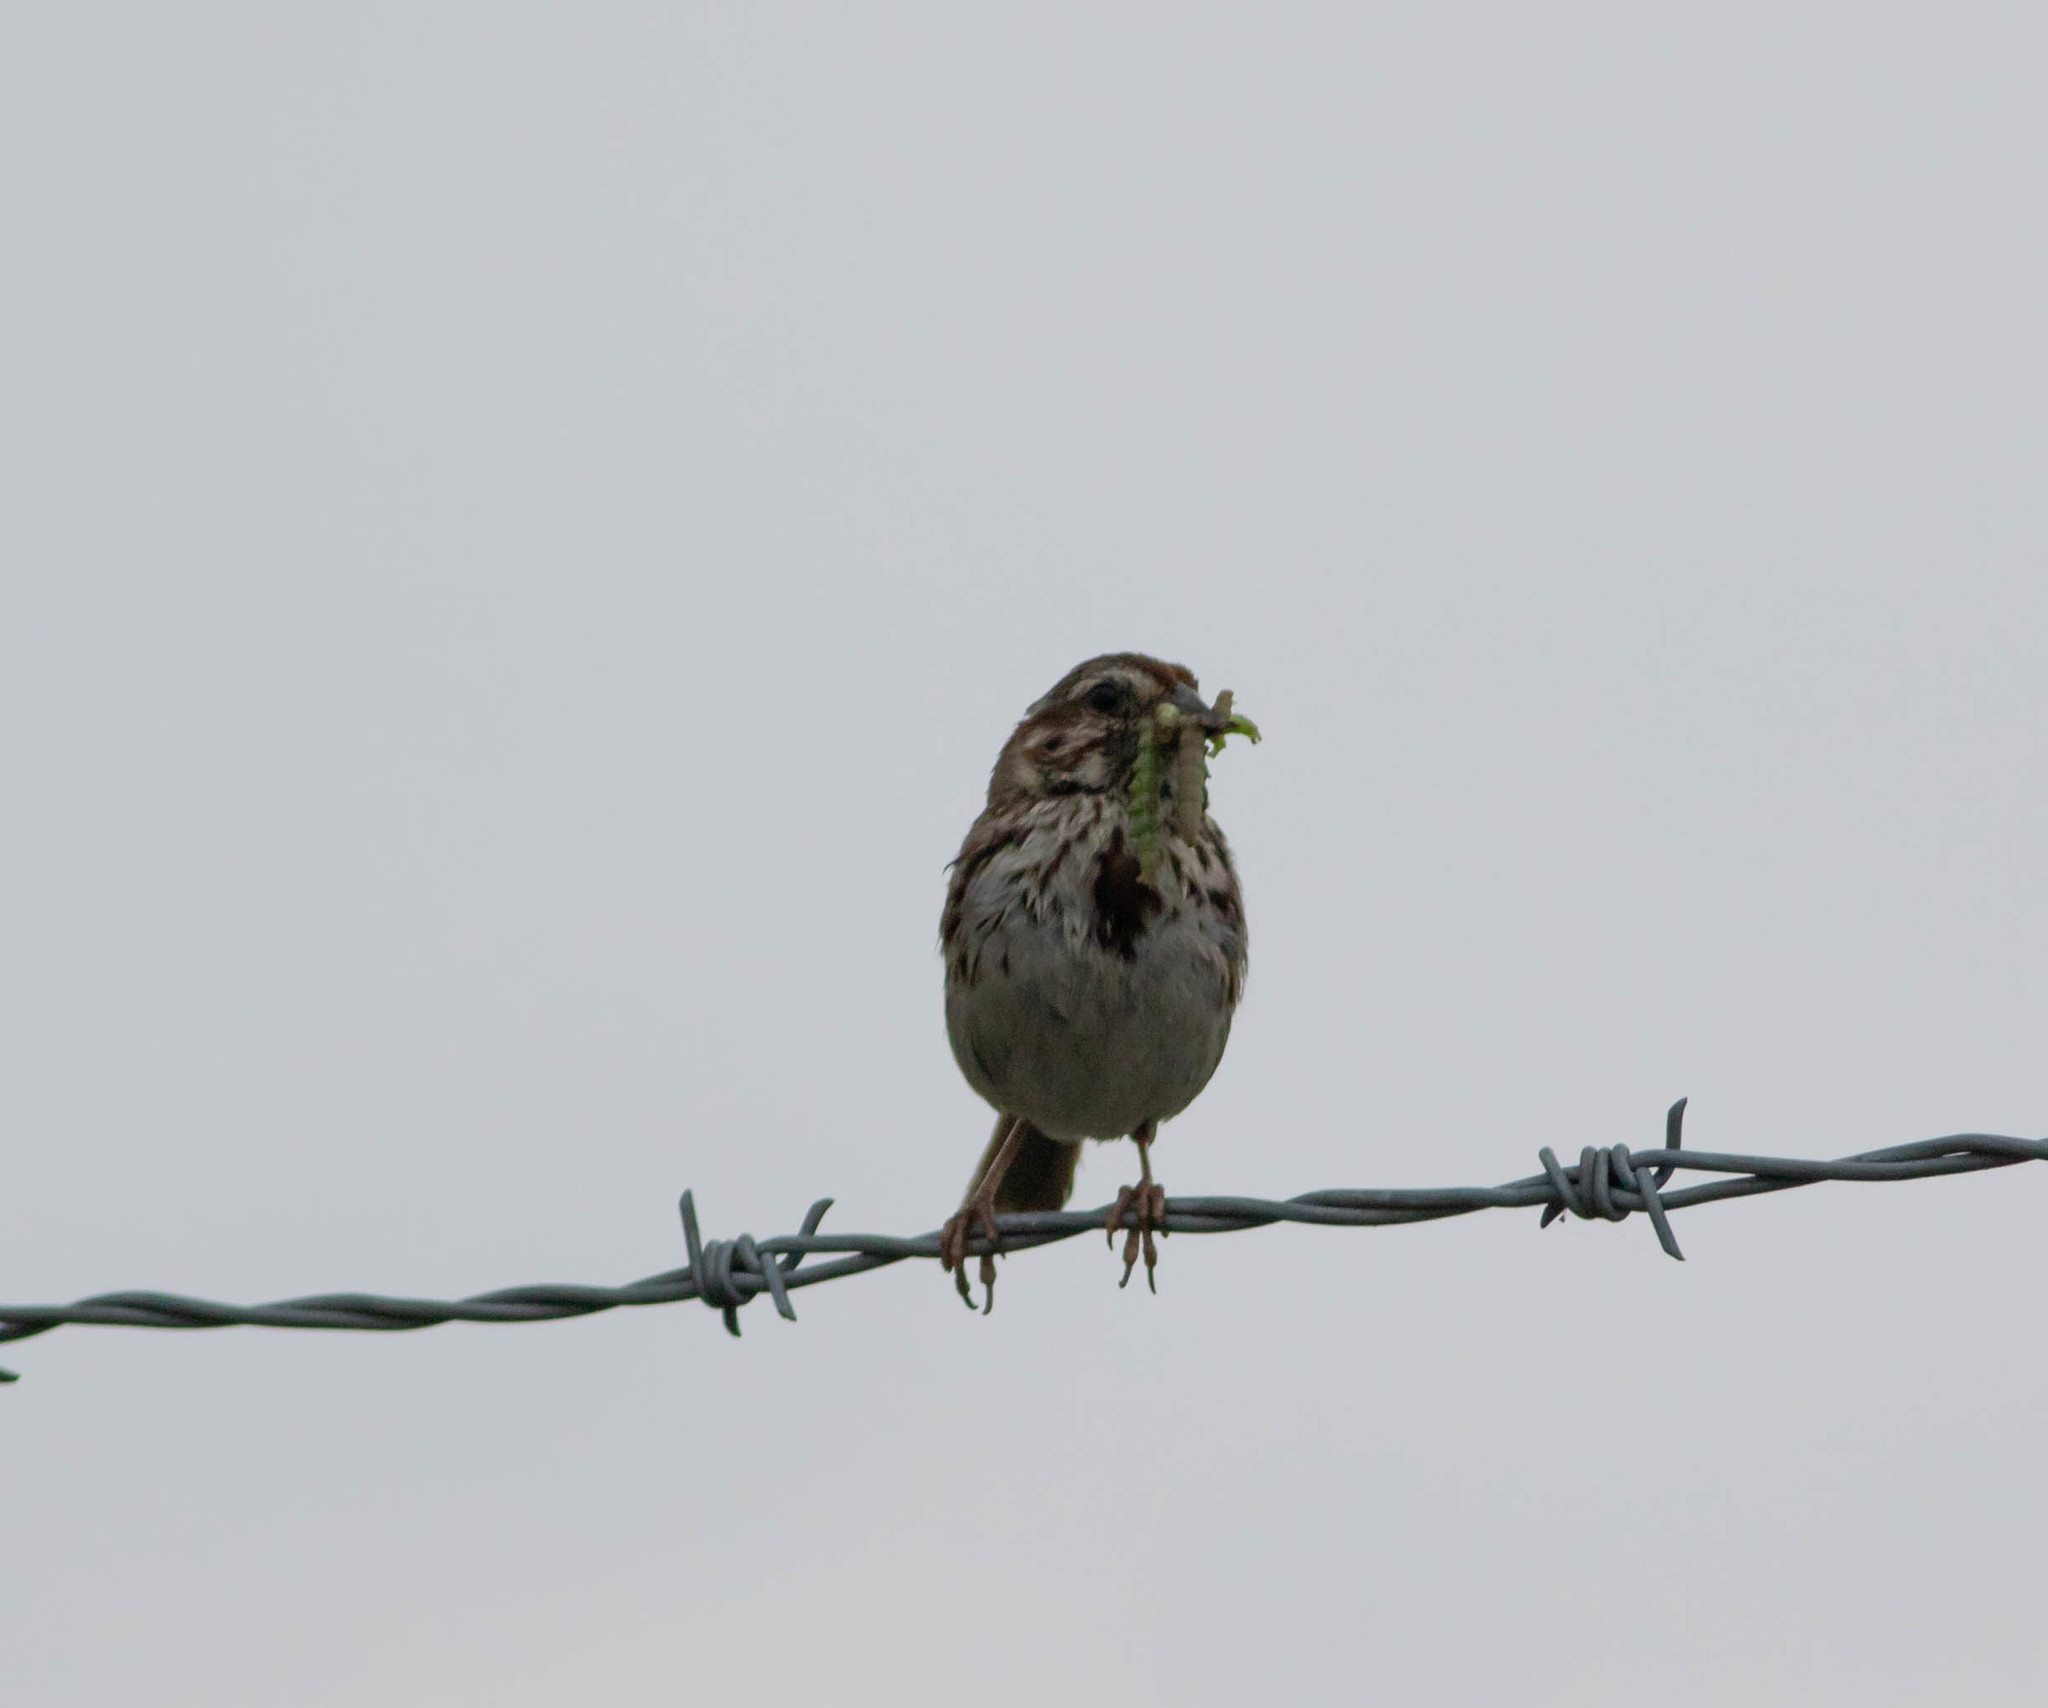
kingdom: Animalia
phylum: Chordata
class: Aves
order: Passeriformes
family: Passerellidae
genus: Melospiza
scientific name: Melospiza melodia
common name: Song sparrow
